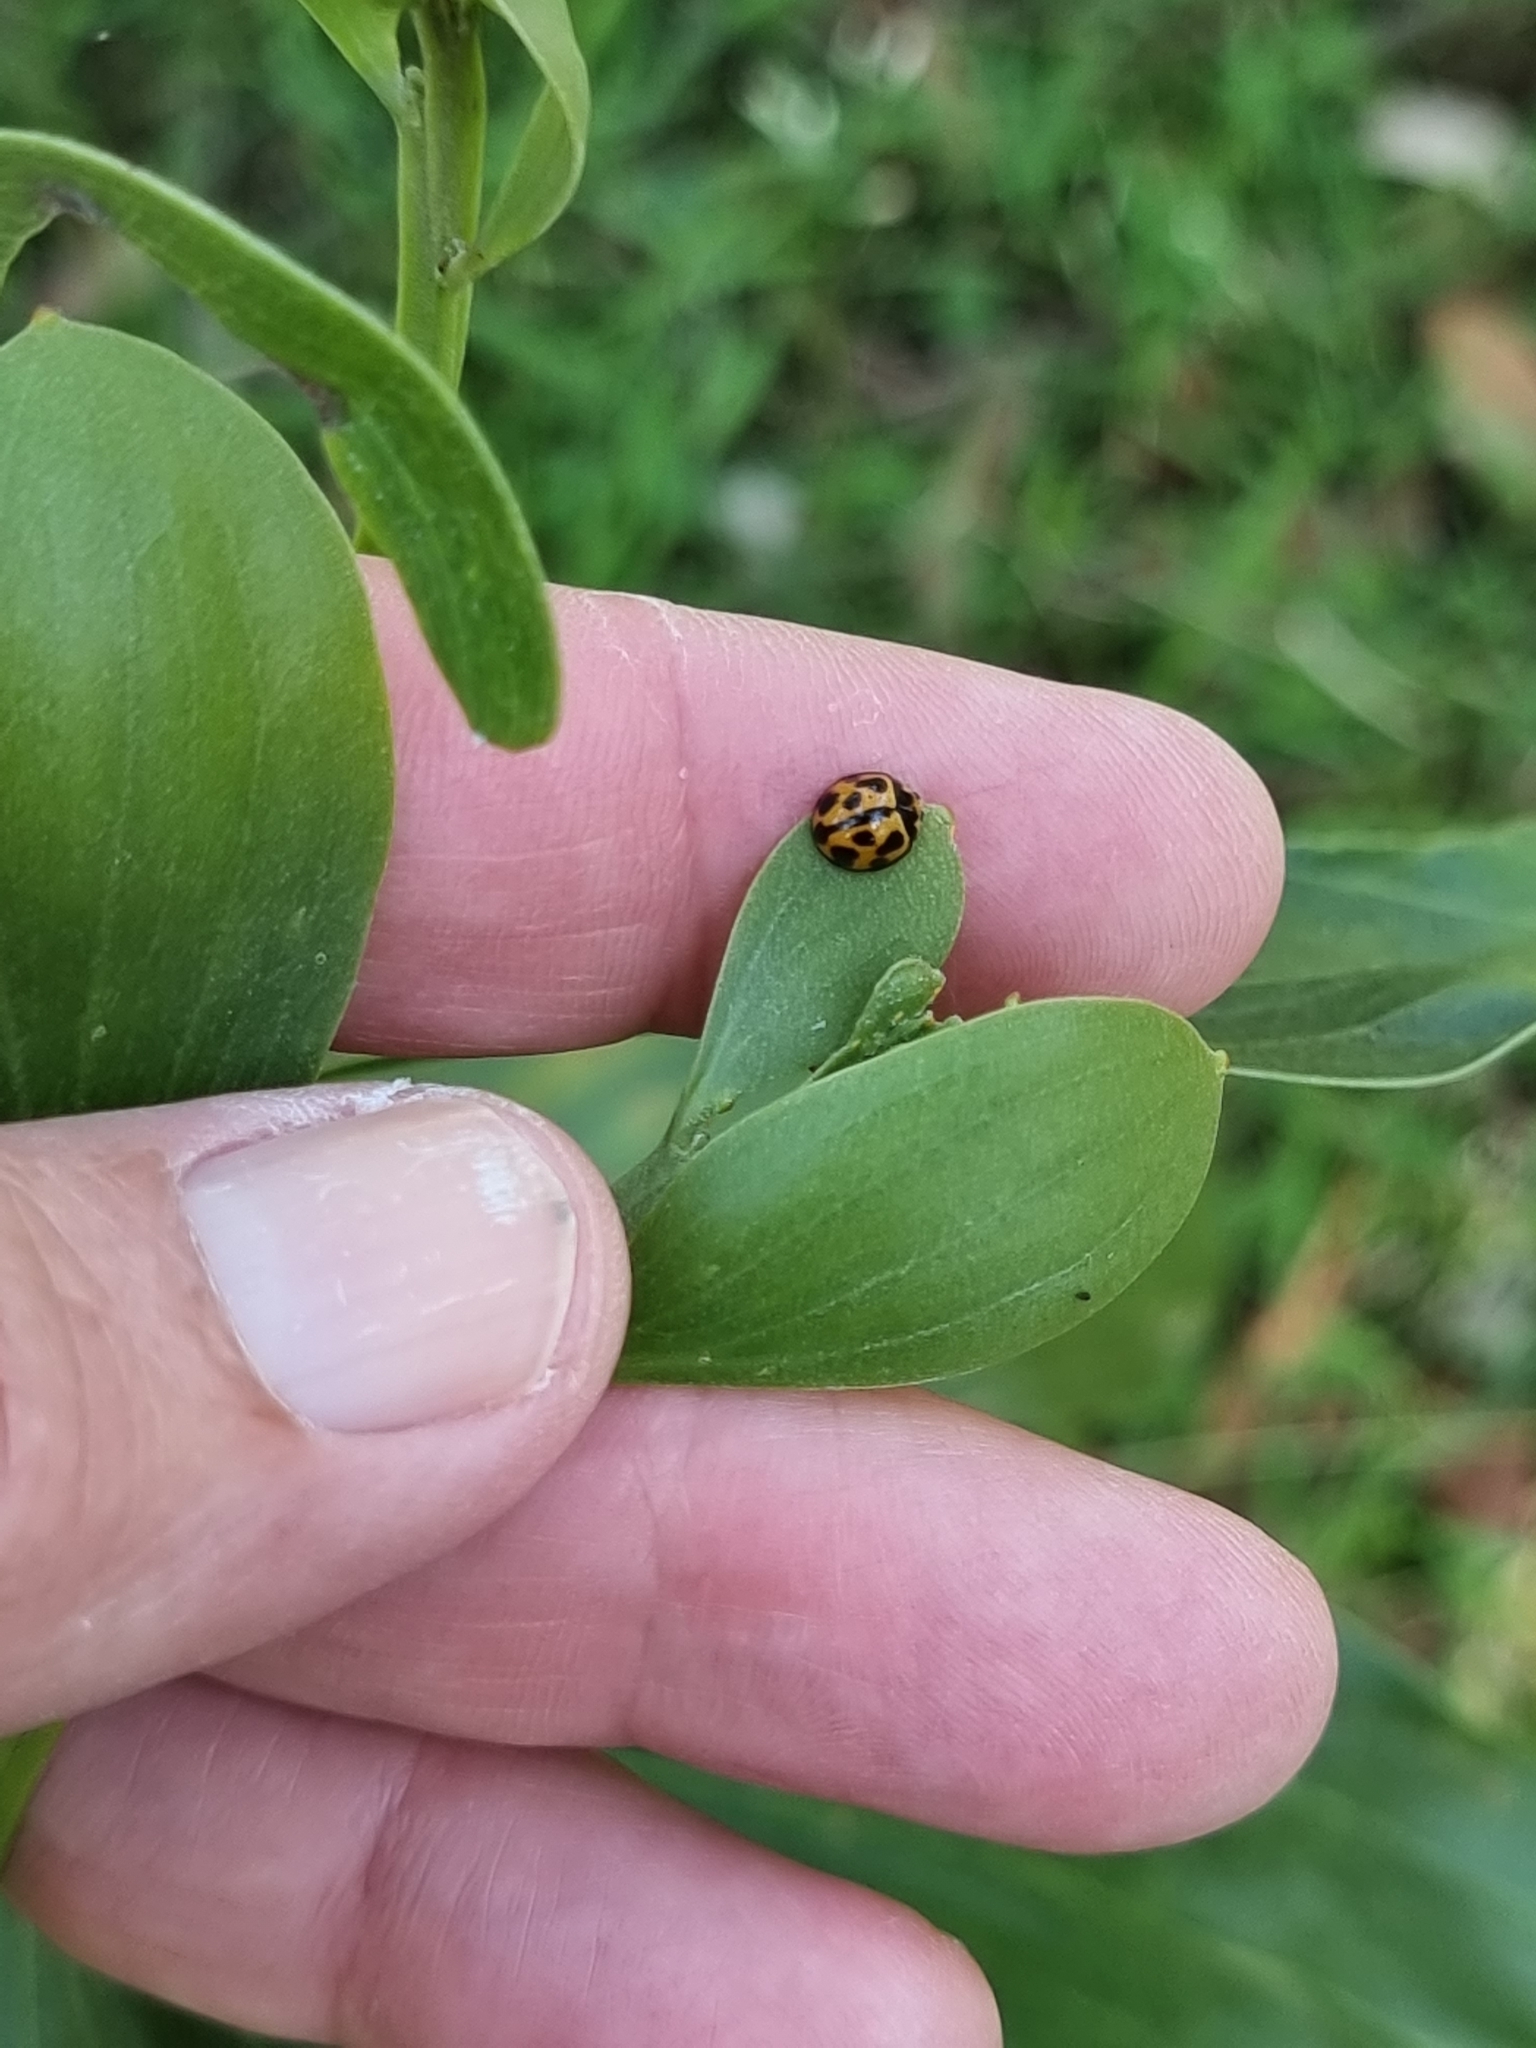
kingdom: Animalia
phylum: Arthropoda
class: Insecta
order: Coleoptera
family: Coccinellidae
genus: Coelophora
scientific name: Coelophora inaequalis
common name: Common australian lady beetle
